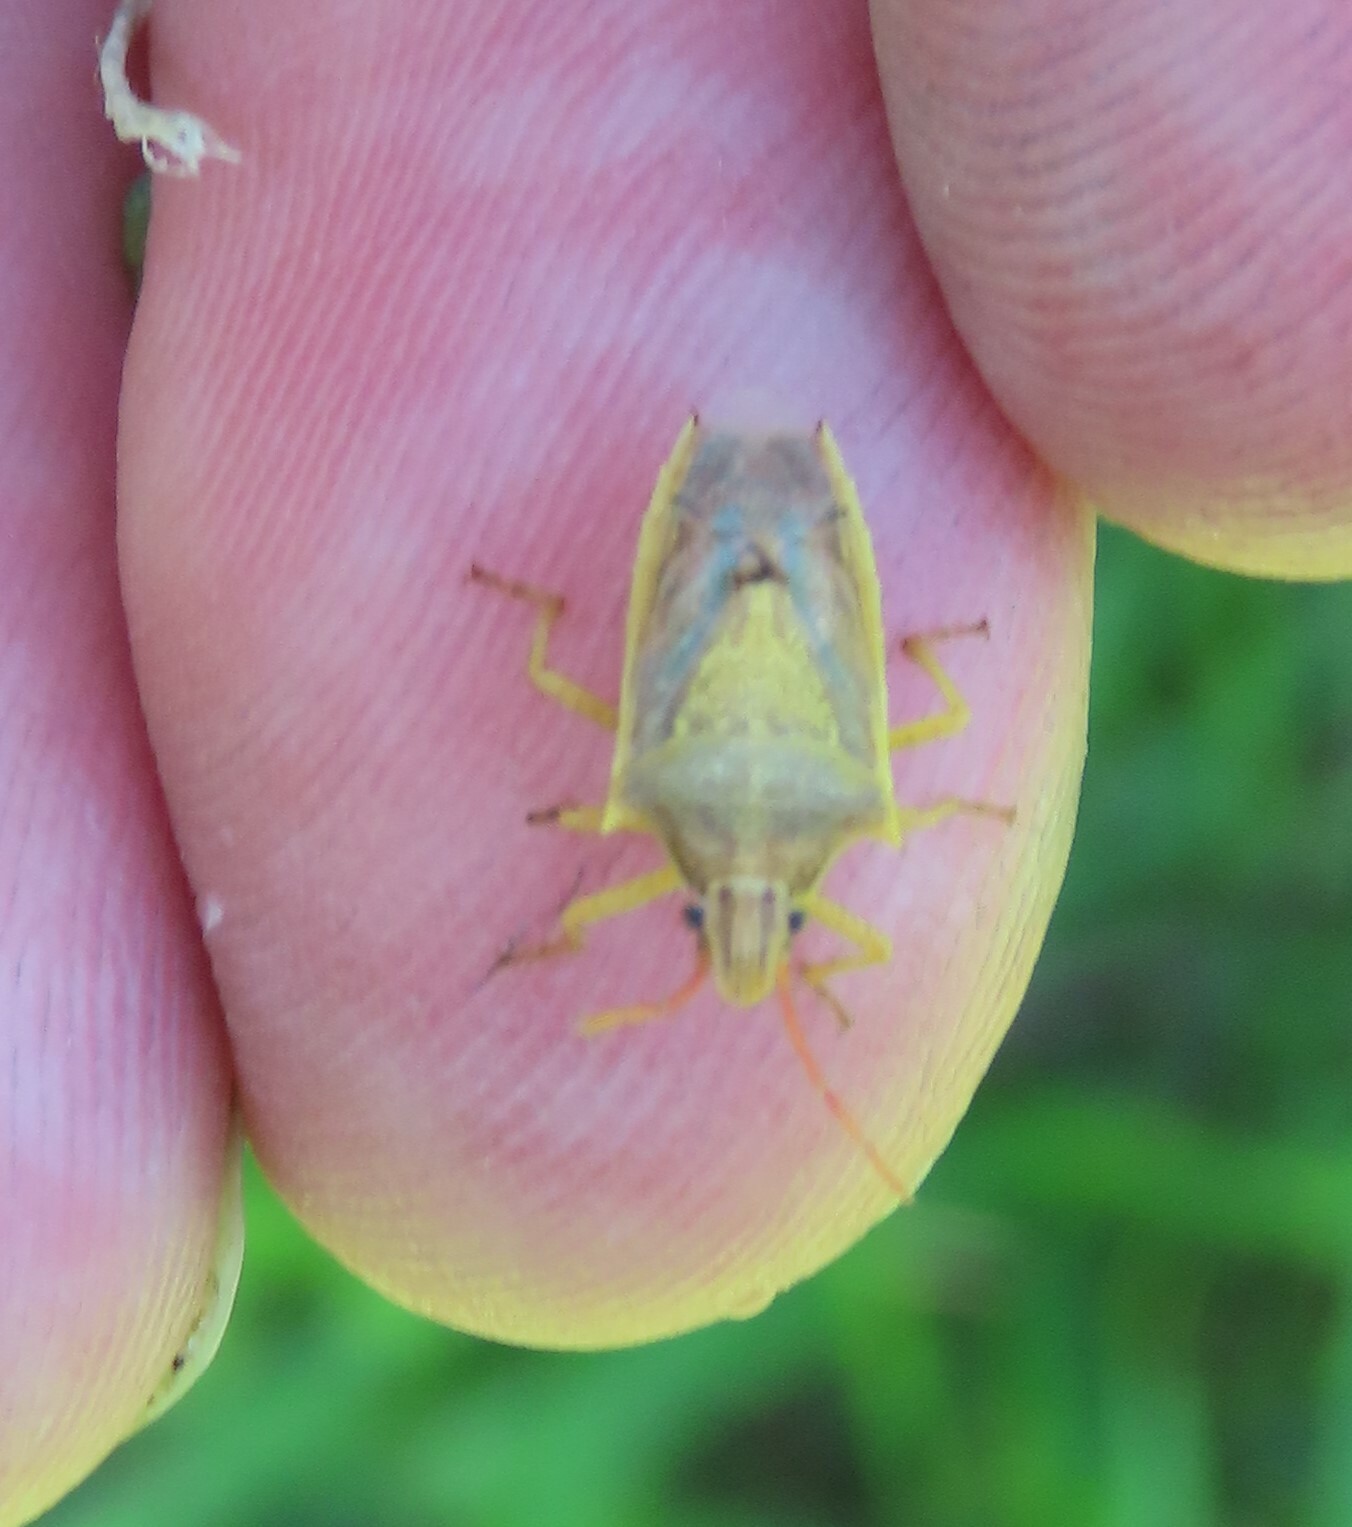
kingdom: Animalia
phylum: Arthropoda
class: Insecta
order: Hemiptera
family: Pentatomidae
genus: Oebalus
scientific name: Oebalus pugnax
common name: Rice stink bug
